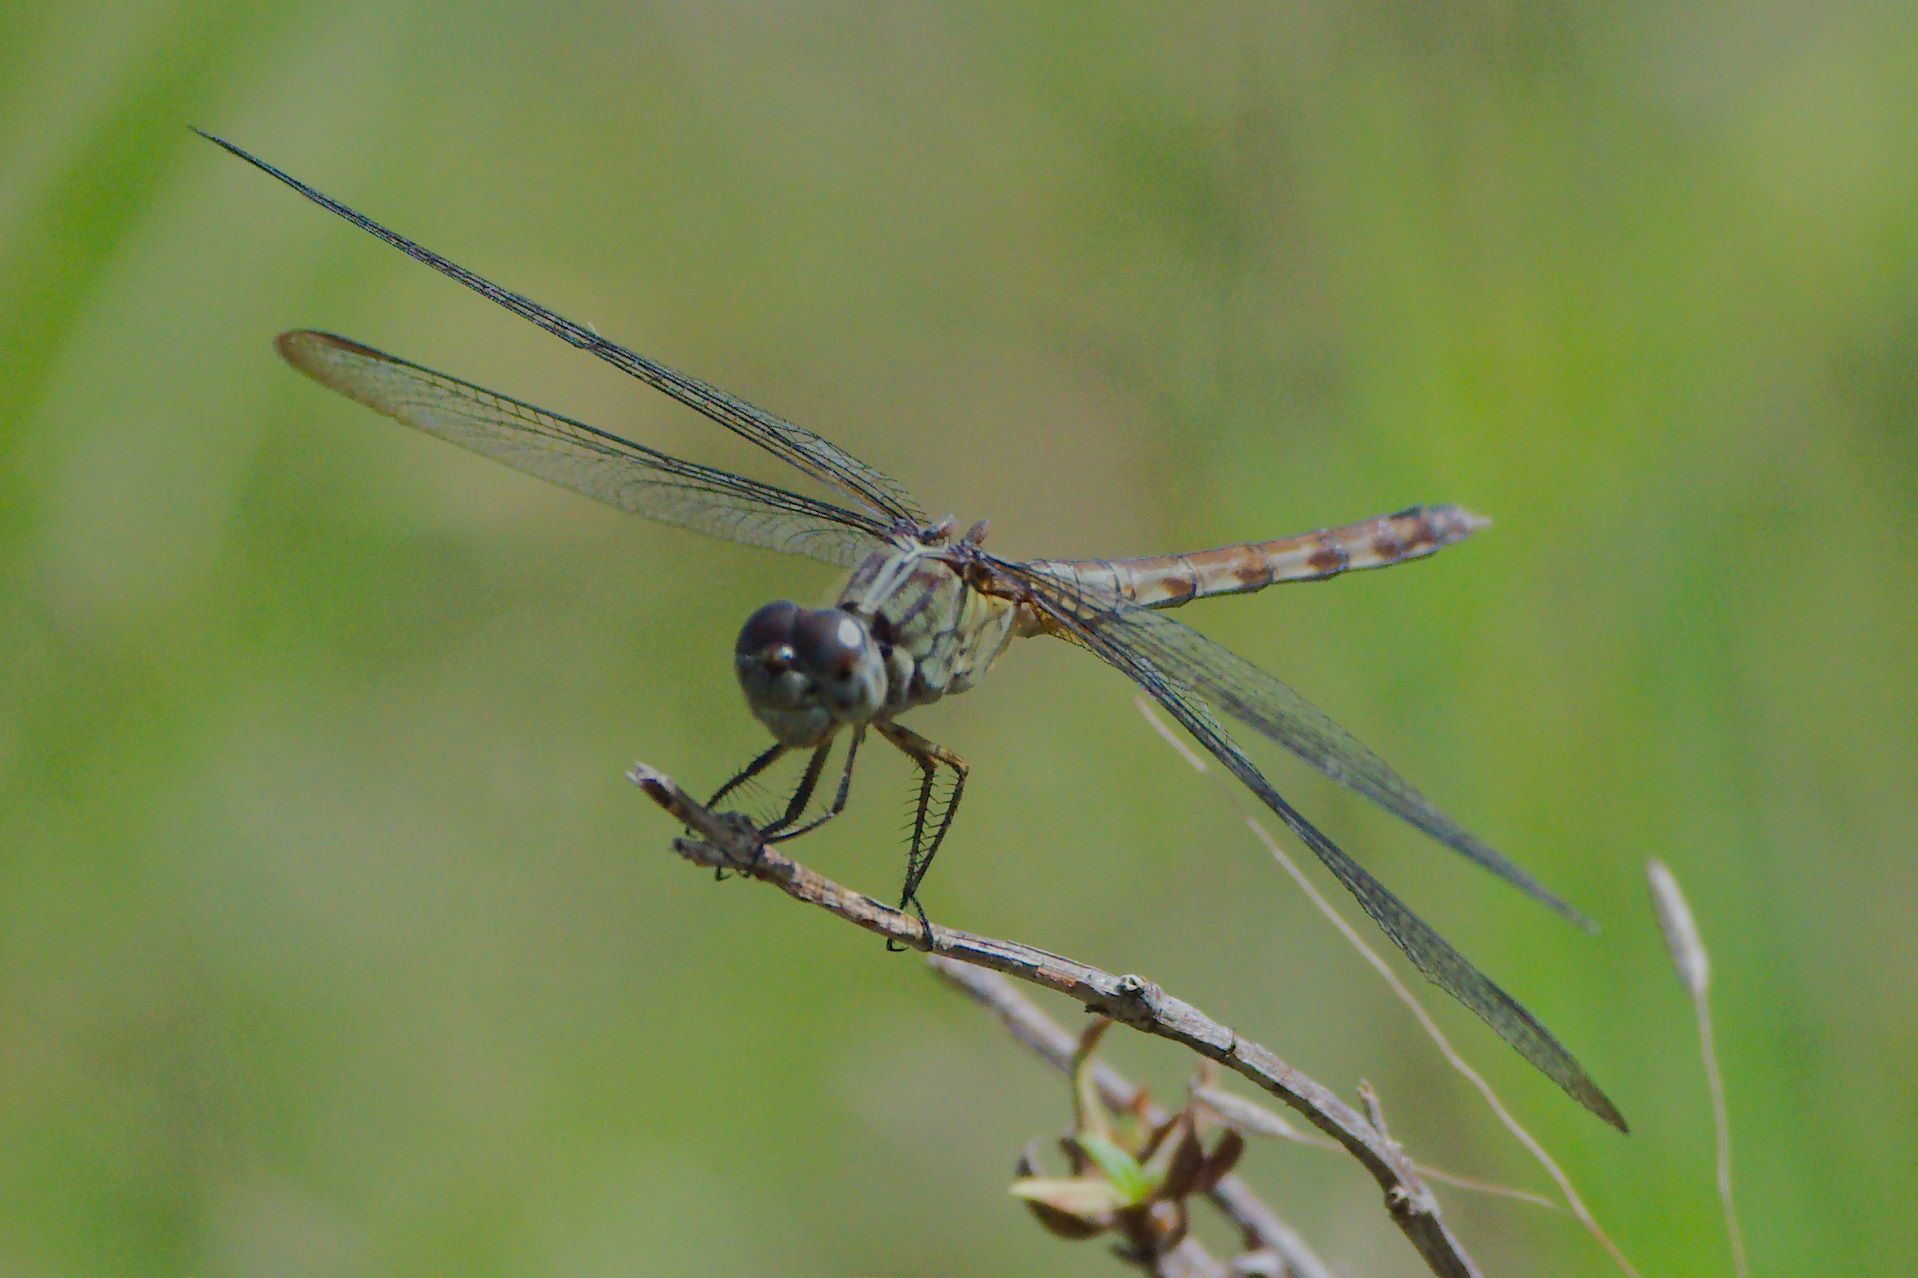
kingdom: Animalia
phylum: Arthropoda
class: Insecta
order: Odonata
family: Libellulidae
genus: Erythrodiplax
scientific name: Erythrodiplax umbrata
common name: Band-winged dragonlet
